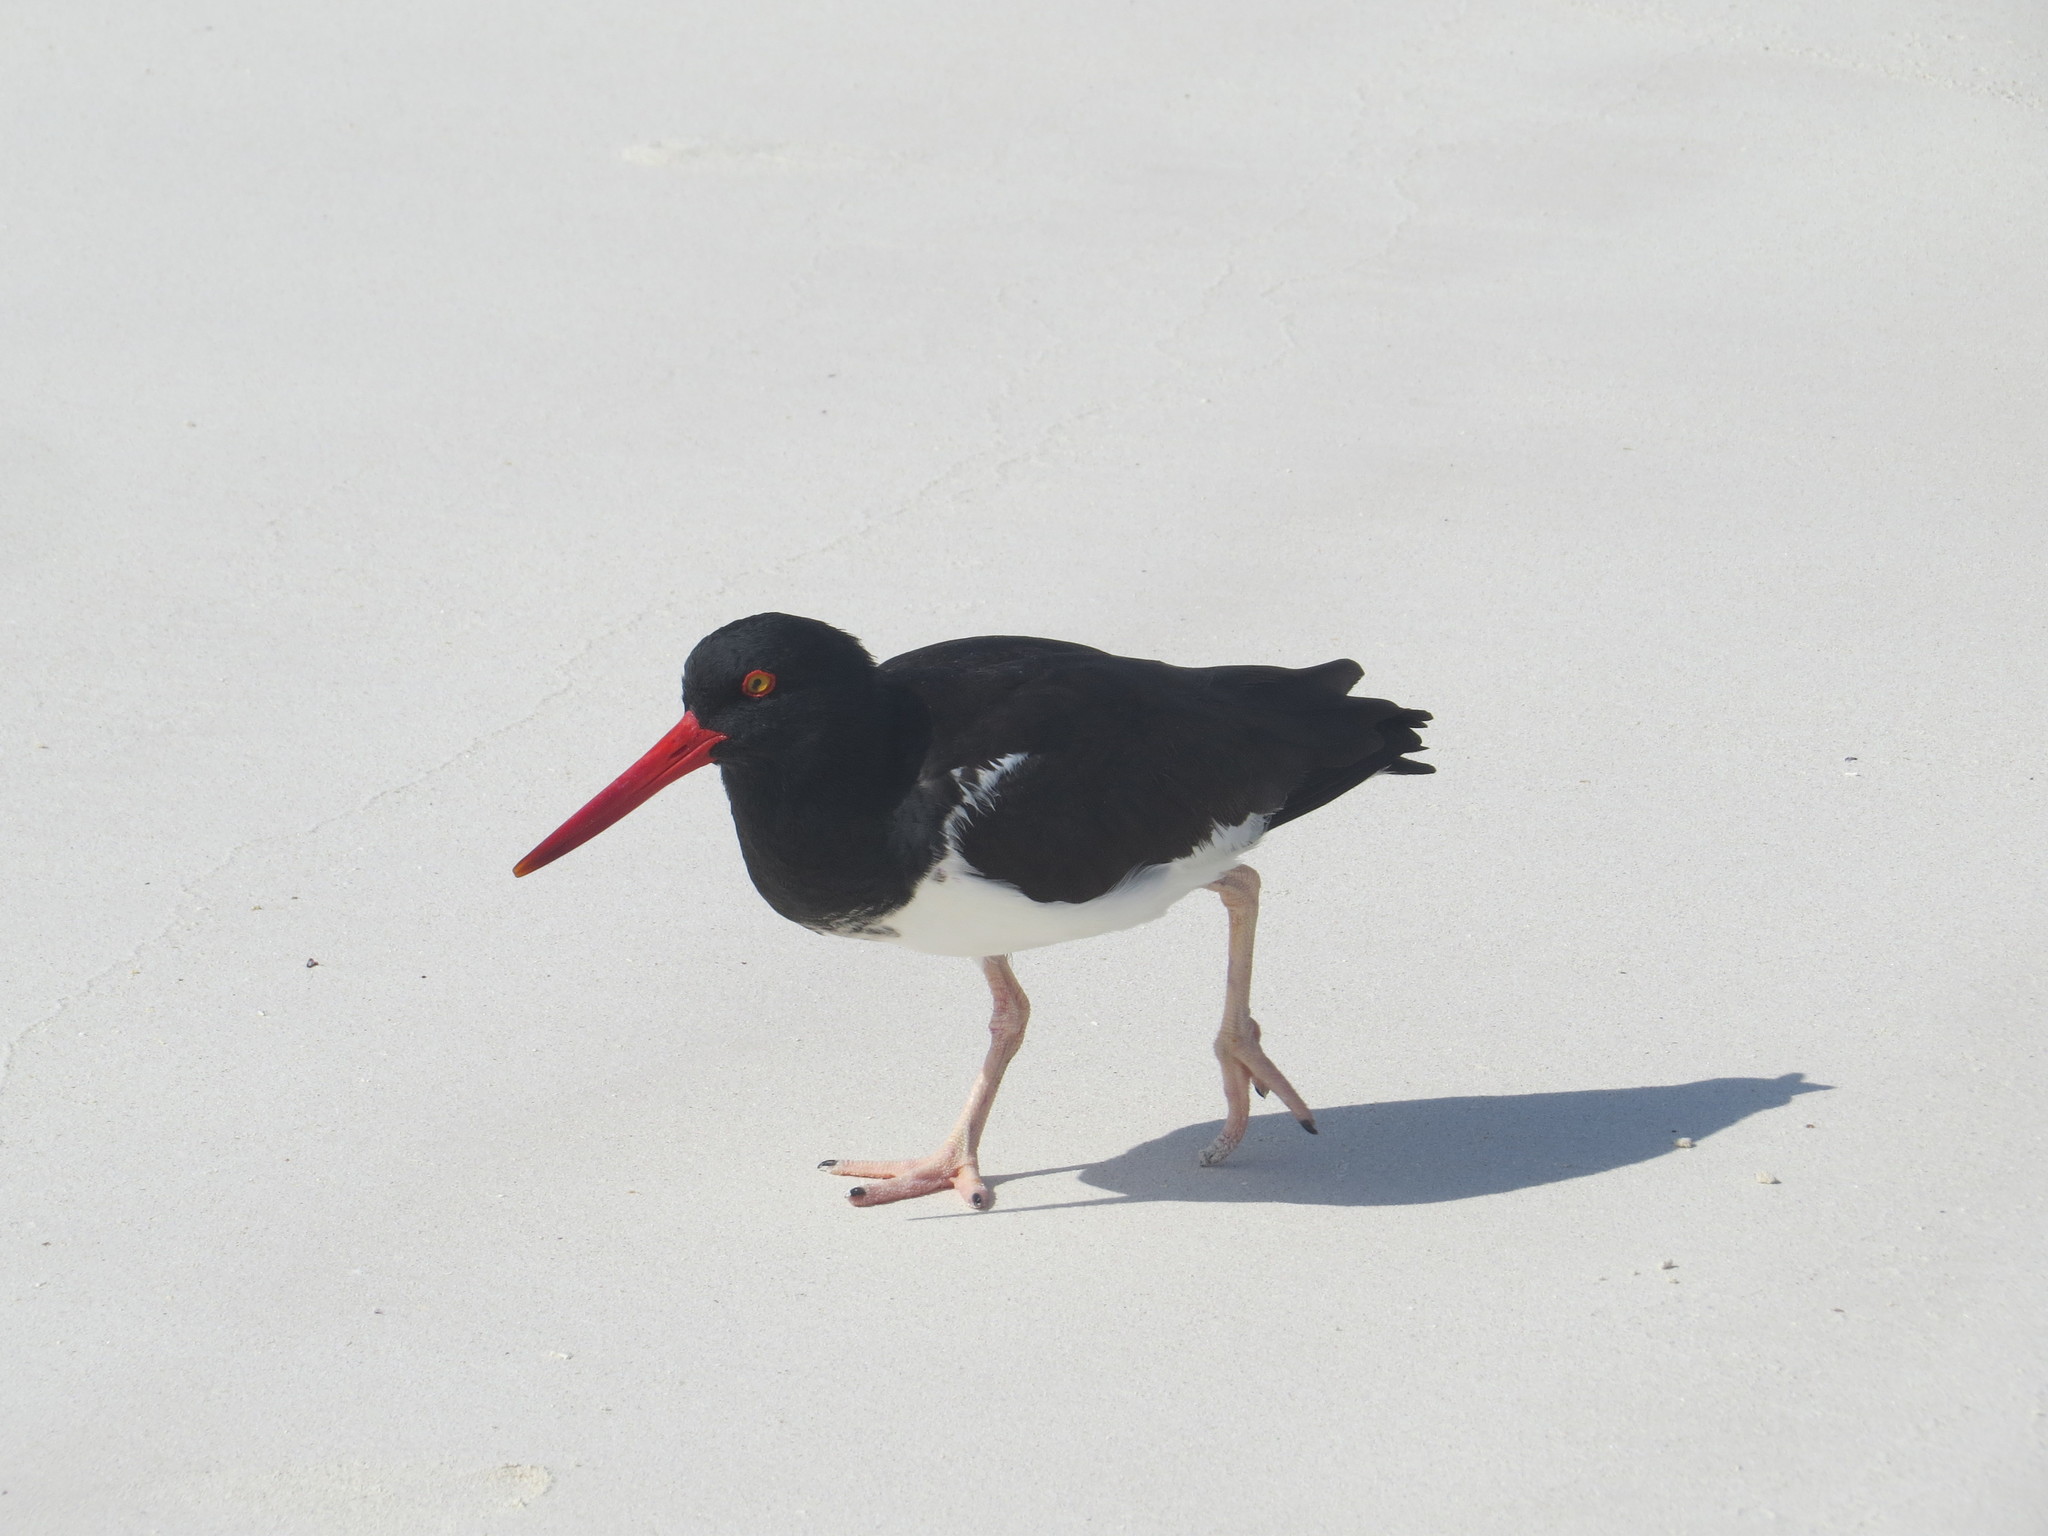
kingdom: Animalia
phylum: Chordata
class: Aves
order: Charadriiformes
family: Haematopodidae
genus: Haematopus
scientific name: Haematopus palliatus
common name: American oystercatcher
